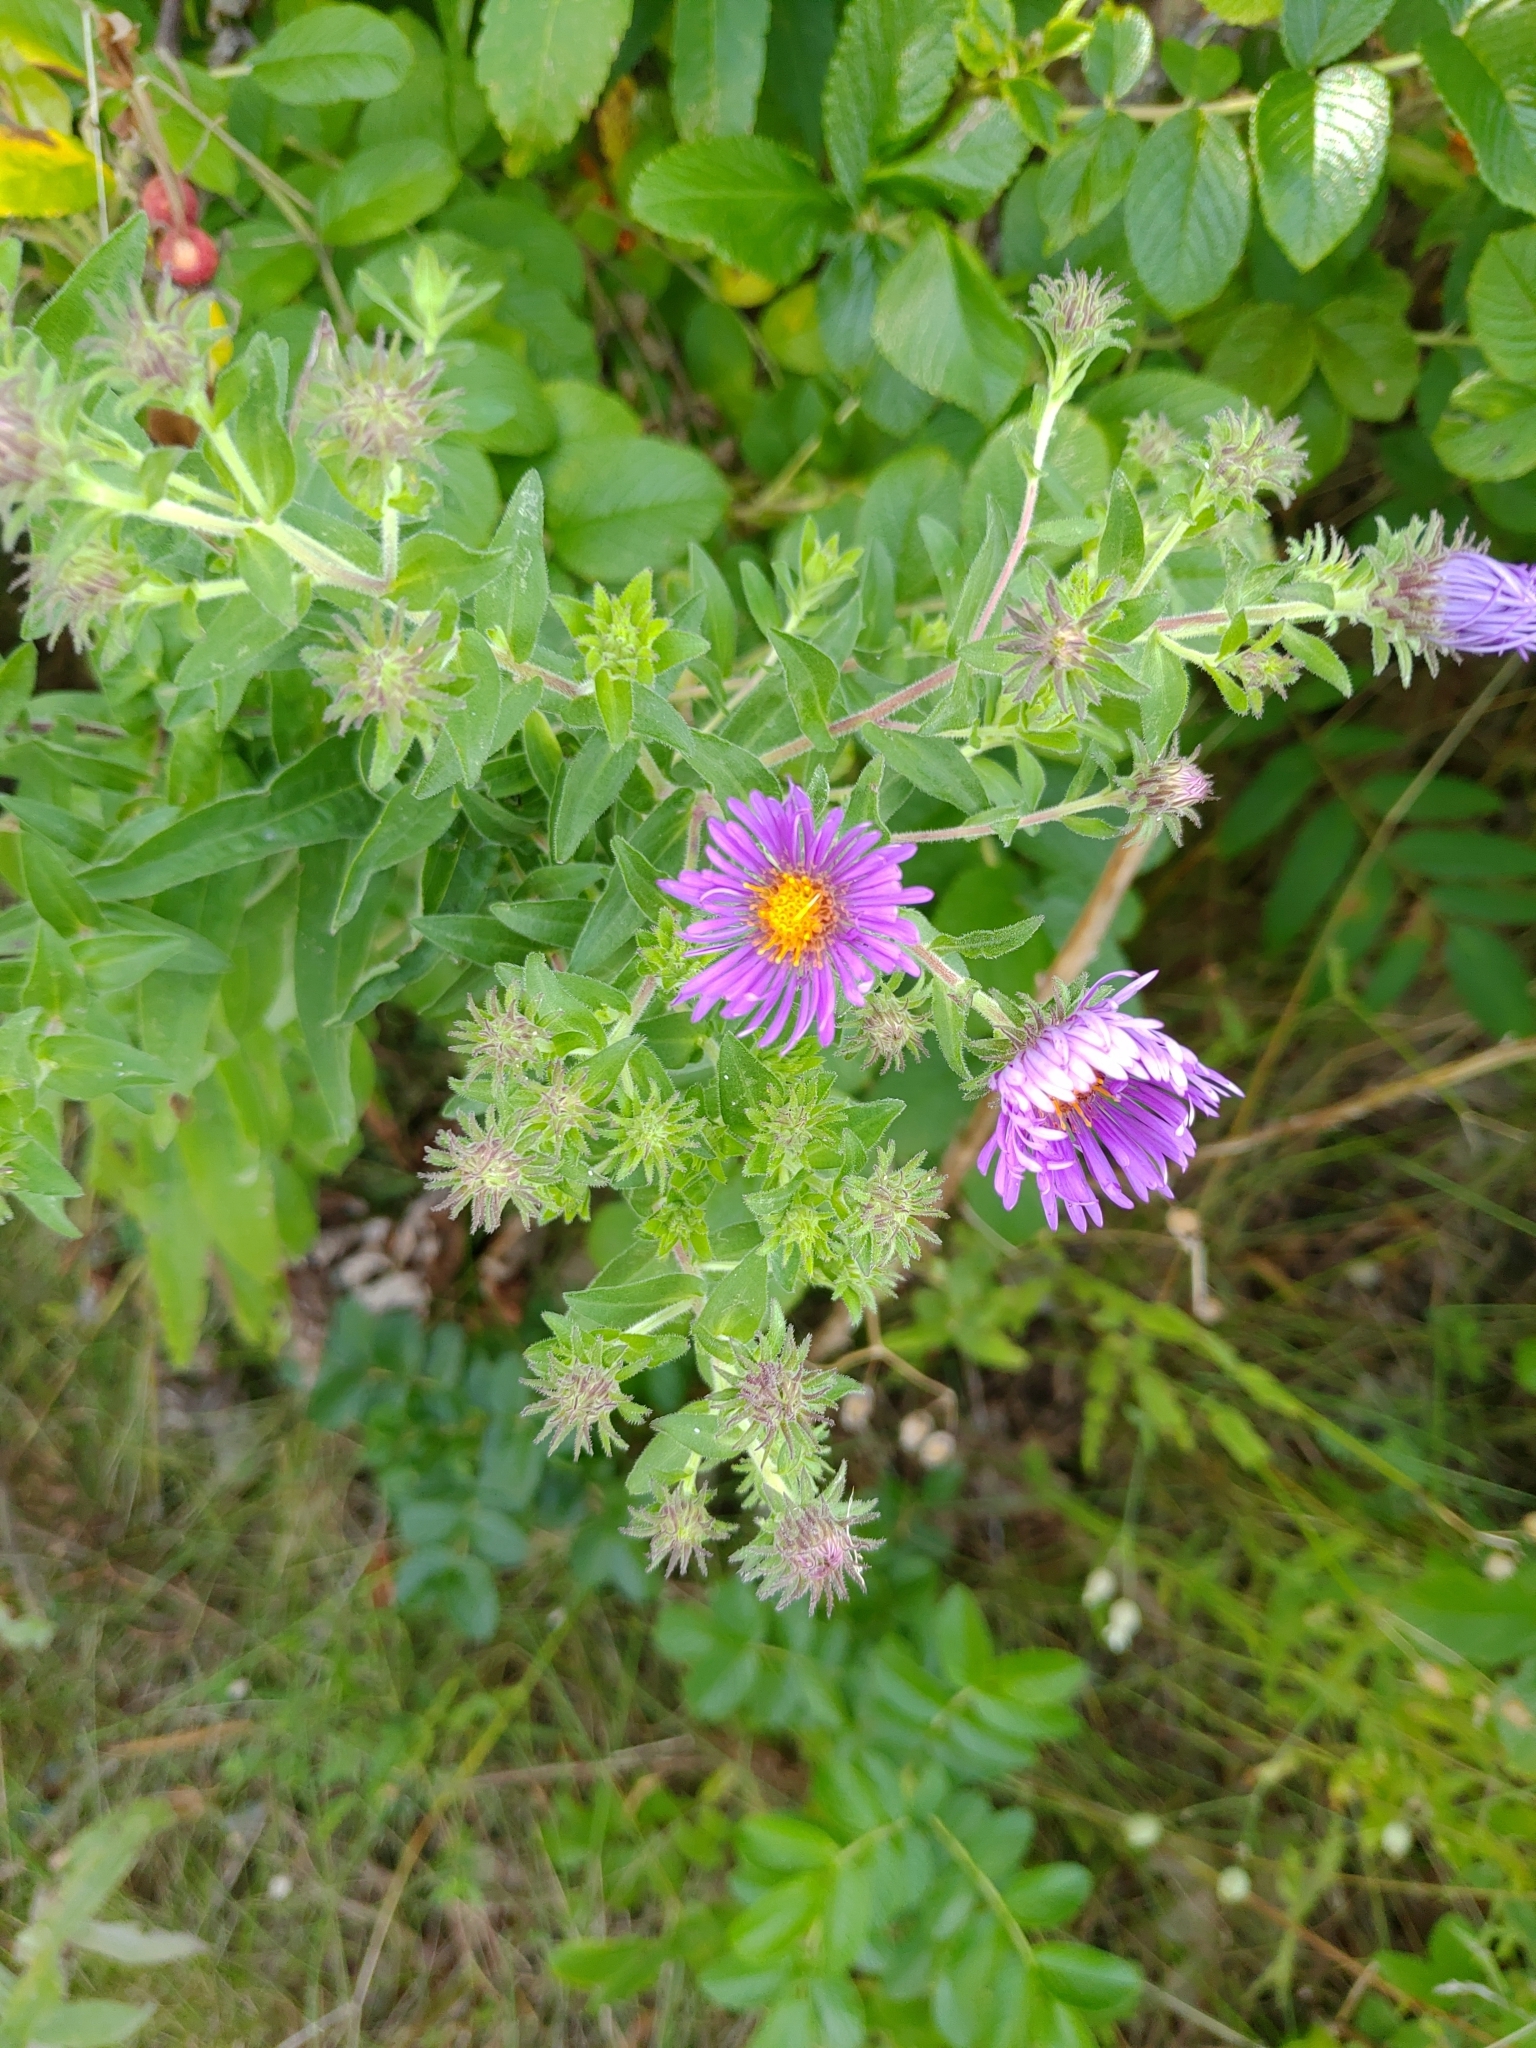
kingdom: Plantae
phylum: Tracheophyta
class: Magnoliopsida
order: Asterales
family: Asteraceae
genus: Symphyotrichum
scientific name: Symphyotrichum novae-angliae
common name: Michaelmas daisy
